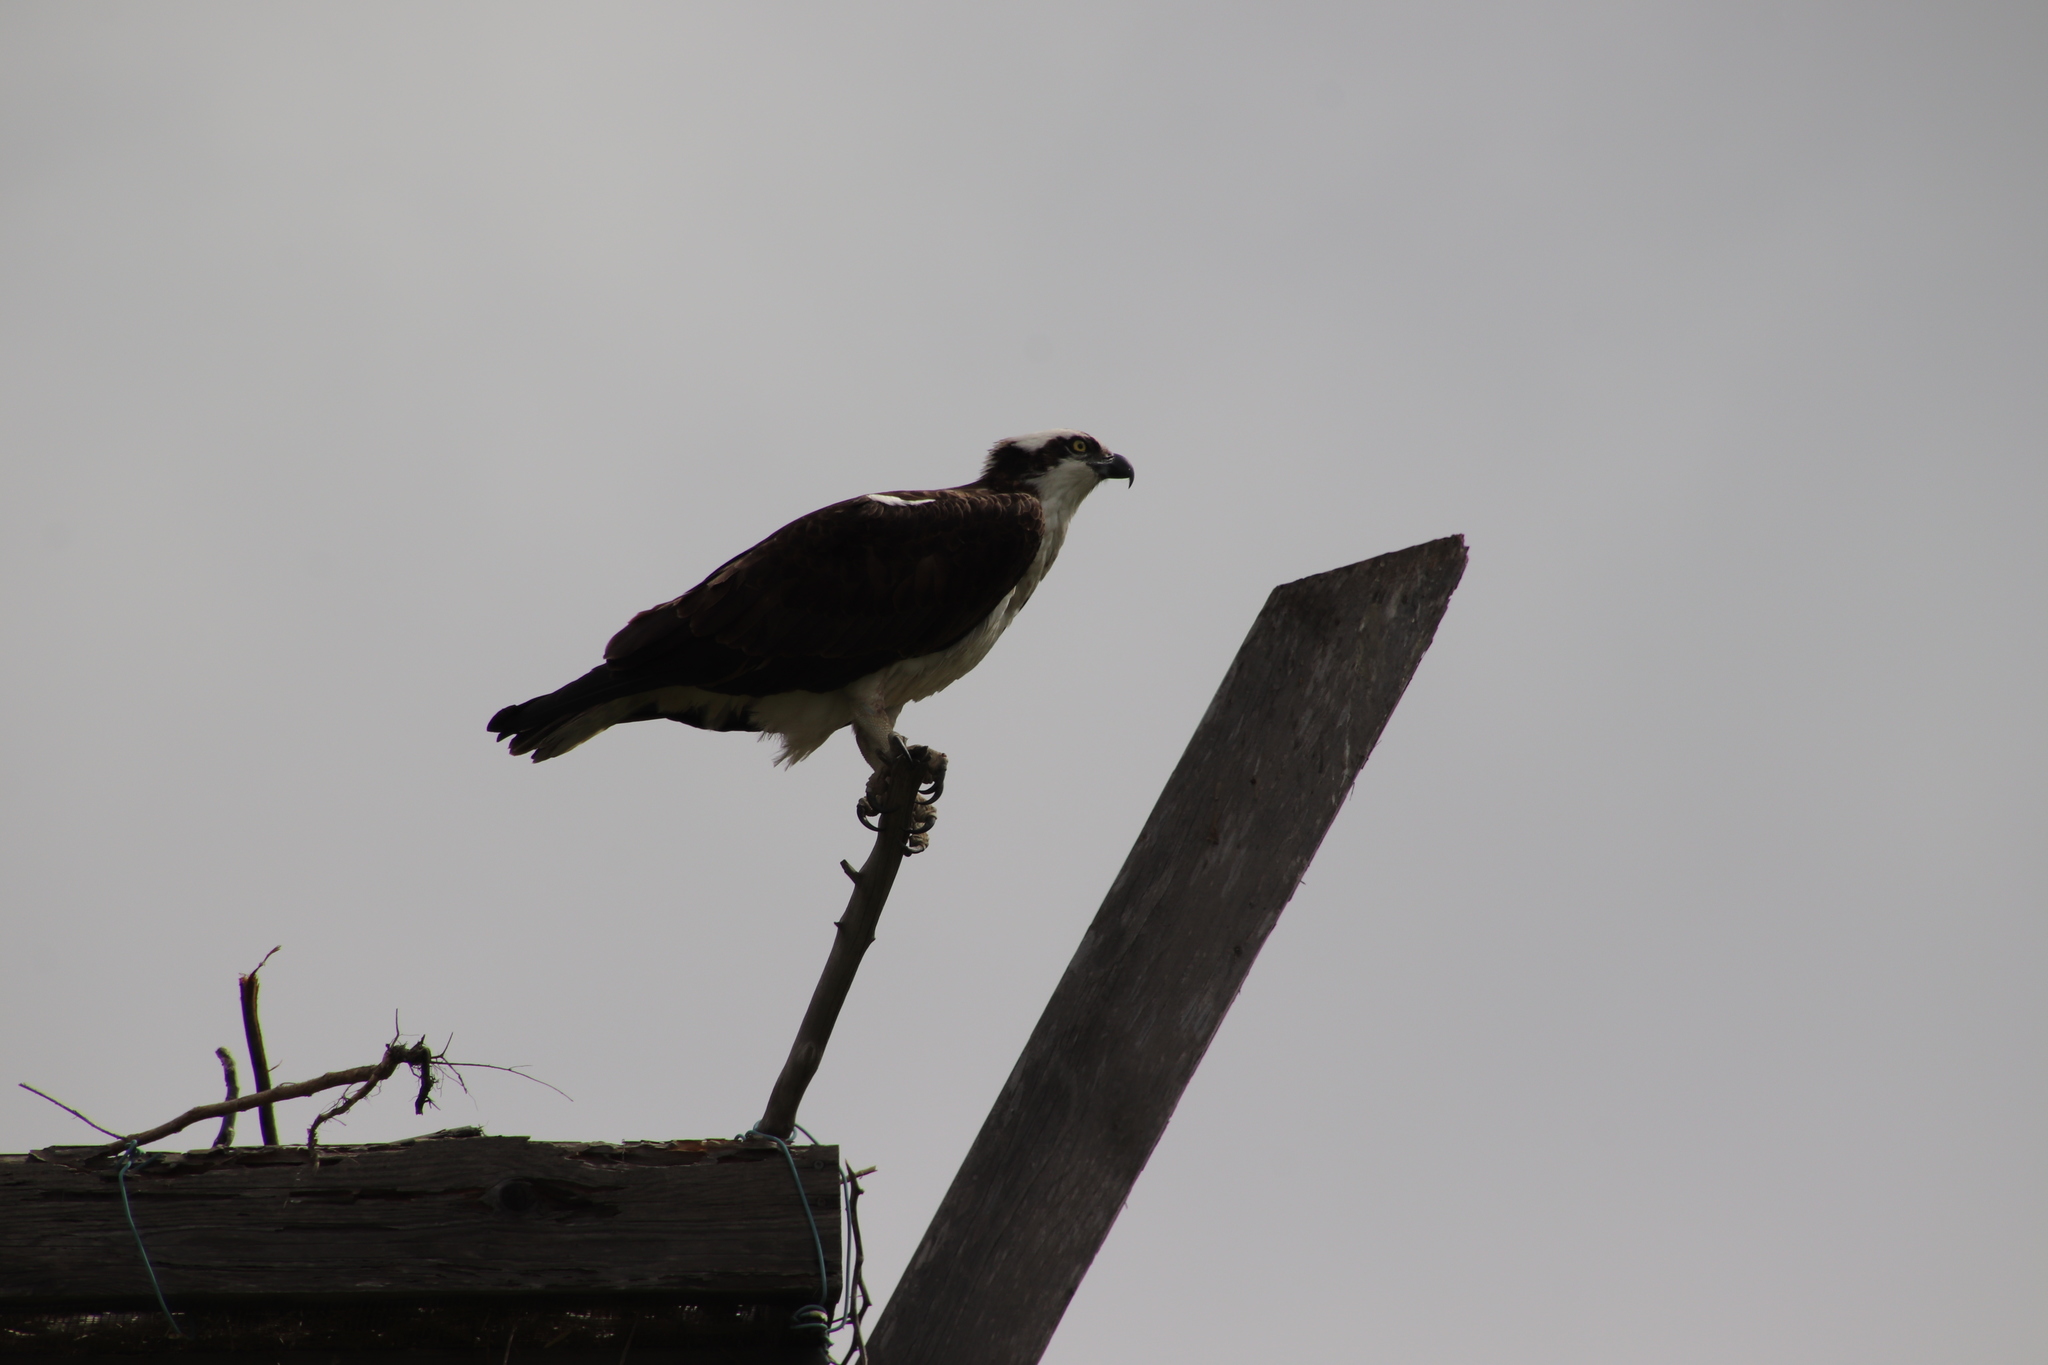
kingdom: Animalia
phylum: Chordata
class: Aves
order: Accipitriformes
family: Pandionidae
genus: Pandion
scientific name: Pandion haliaetus
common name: Osprey
